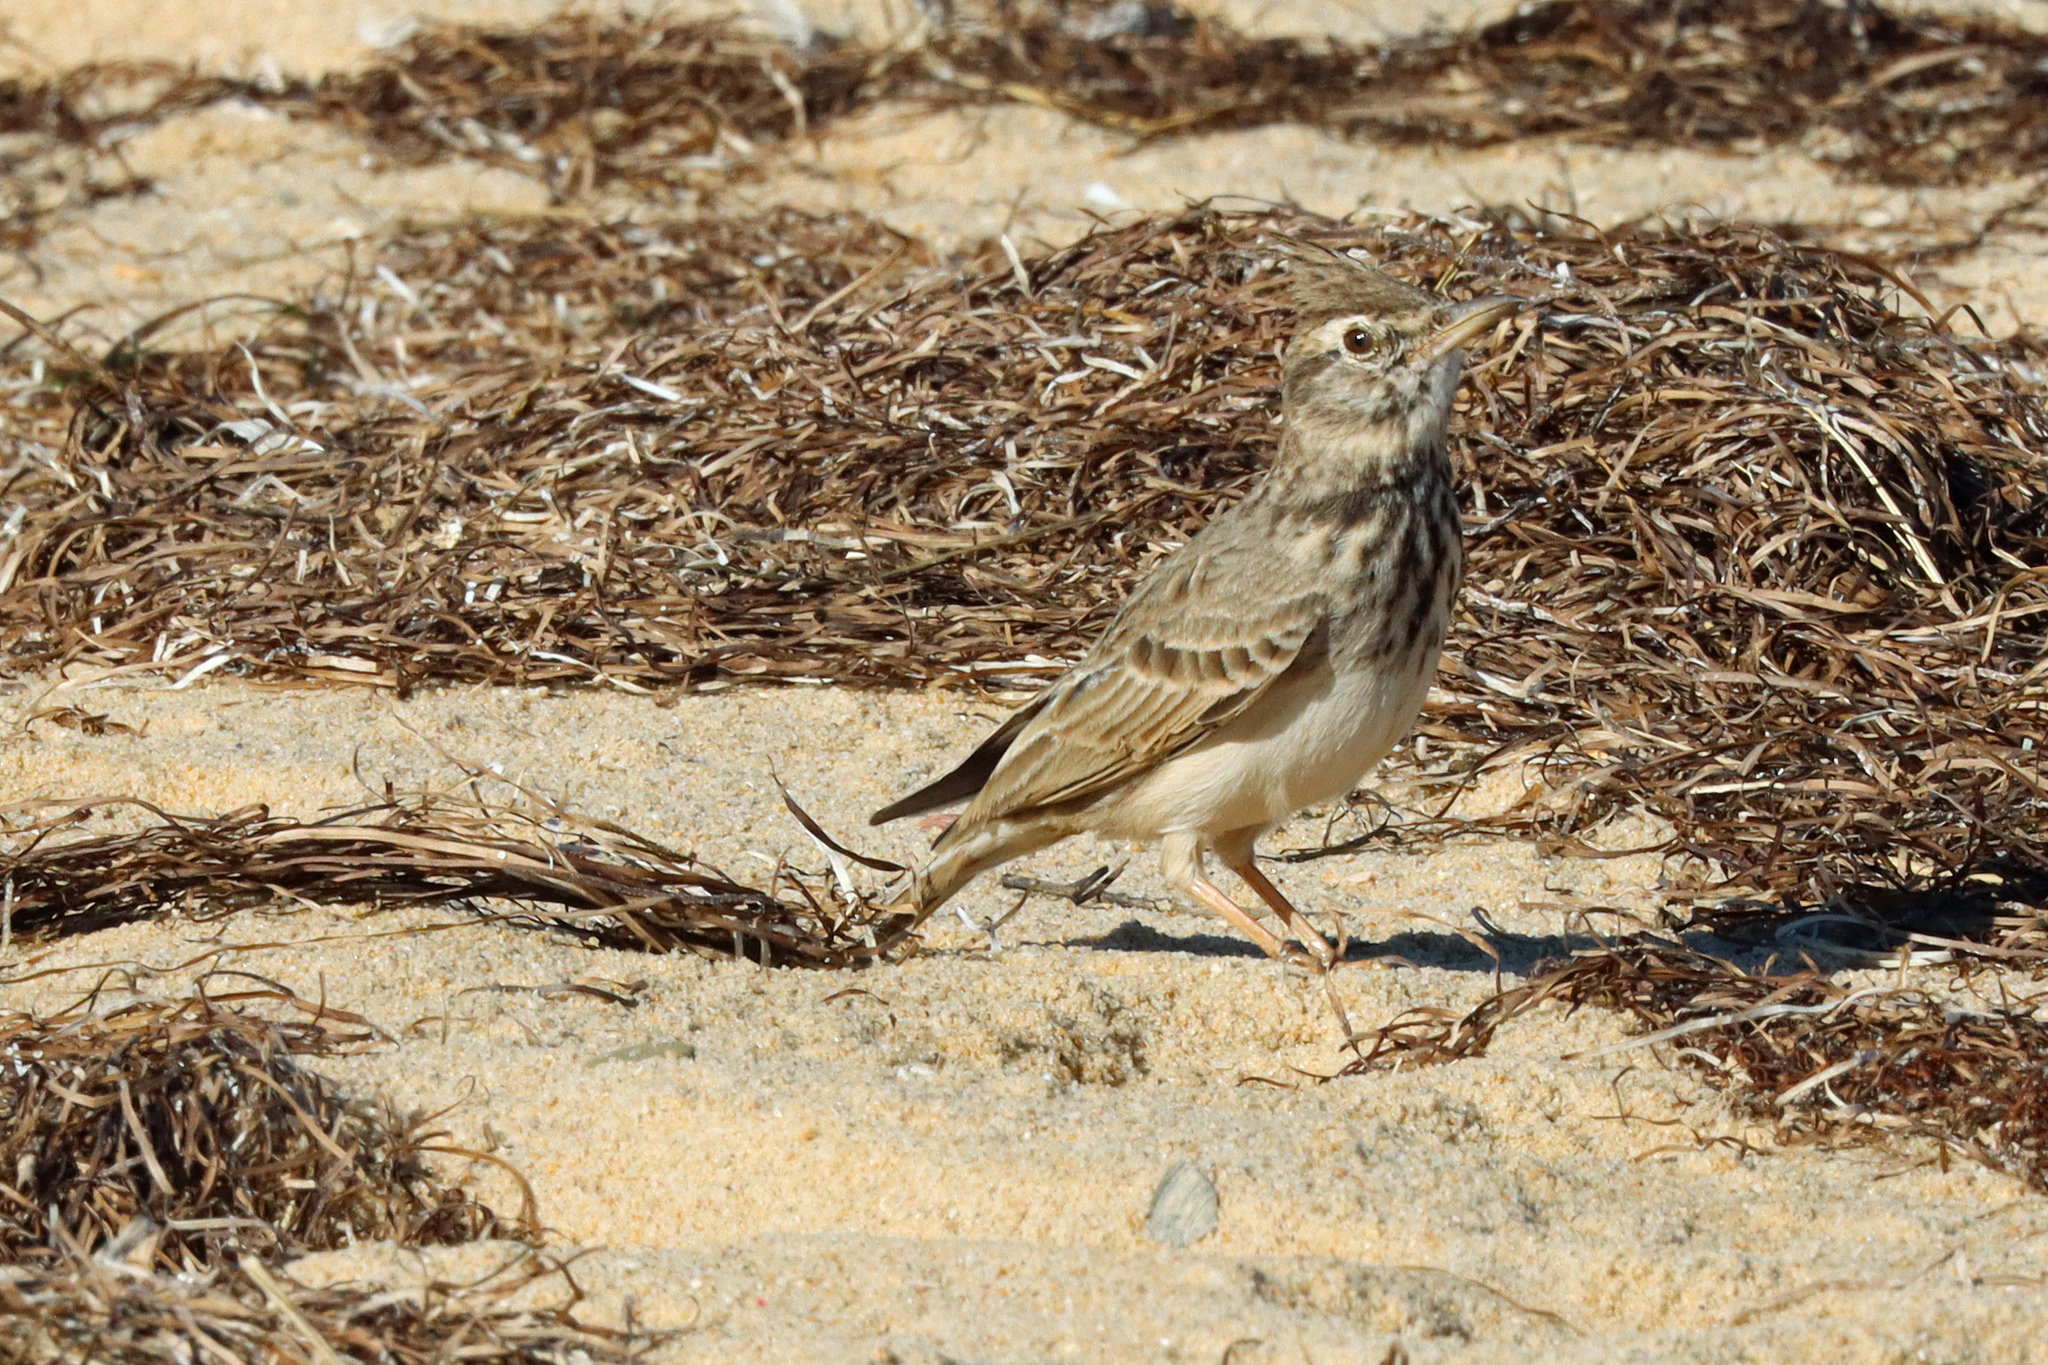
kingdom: Animalia
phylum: Chordata
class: Aves
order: Passeriformes
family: Alaudidae
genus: Galerida
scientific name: Galerida cristata
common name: Crested lark
